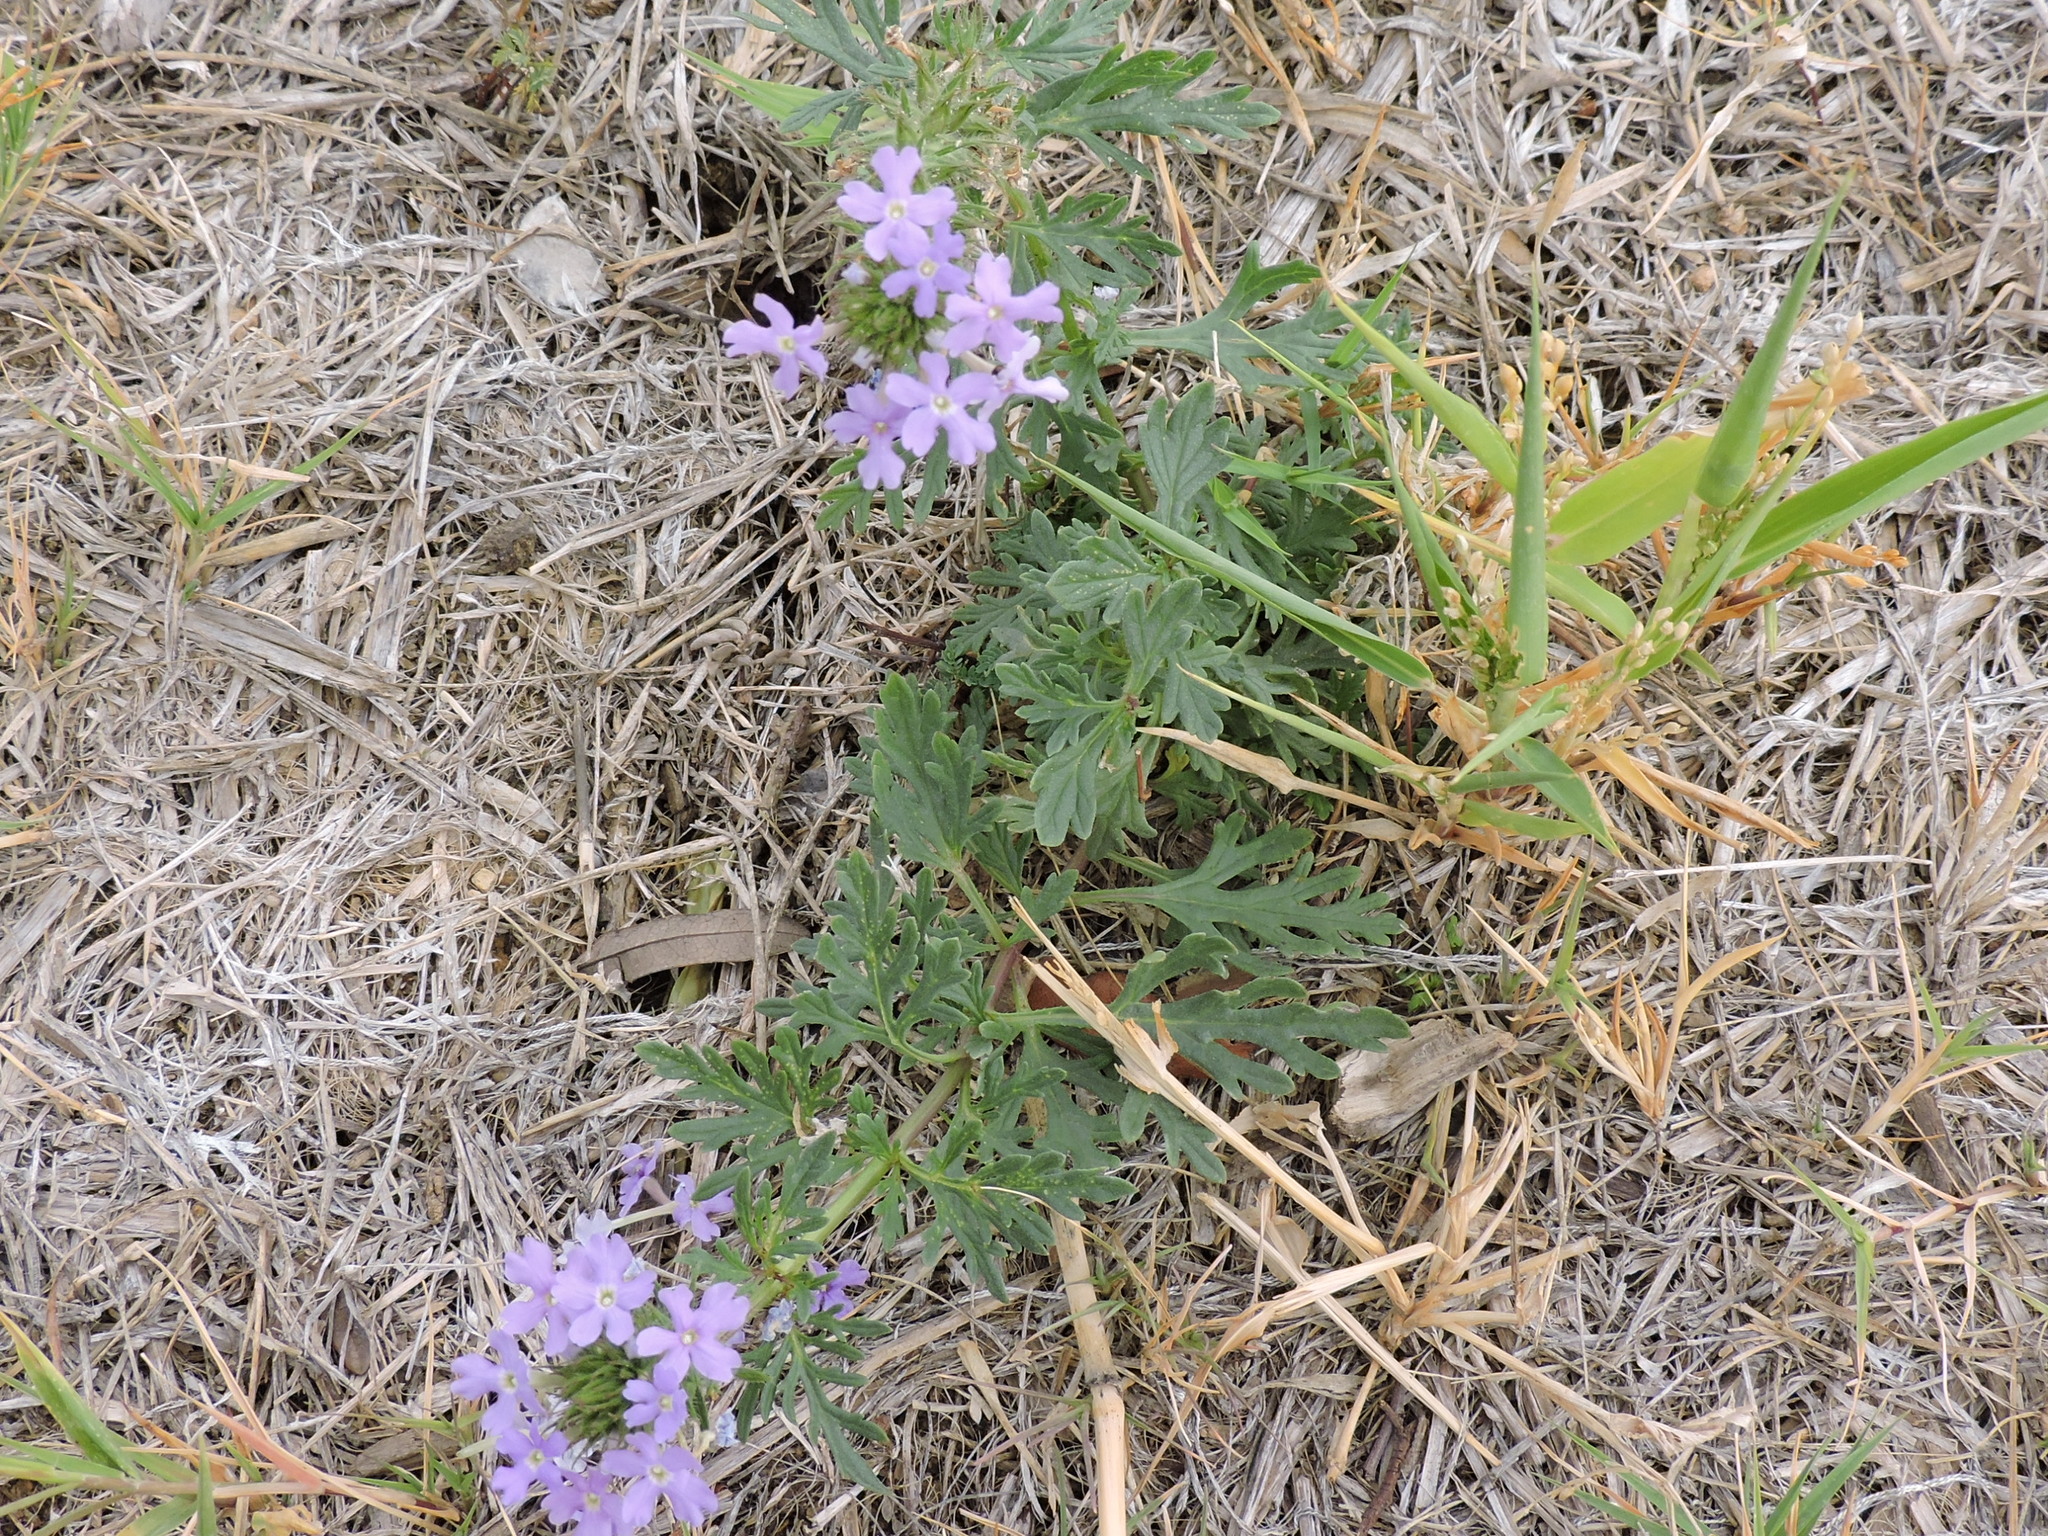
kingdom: Plantae
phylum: Tracheophyta
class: Magnoliopsida
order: Lamiales
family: Verbenaceae
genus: Verbena
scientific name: Verbena bipinnatifida
